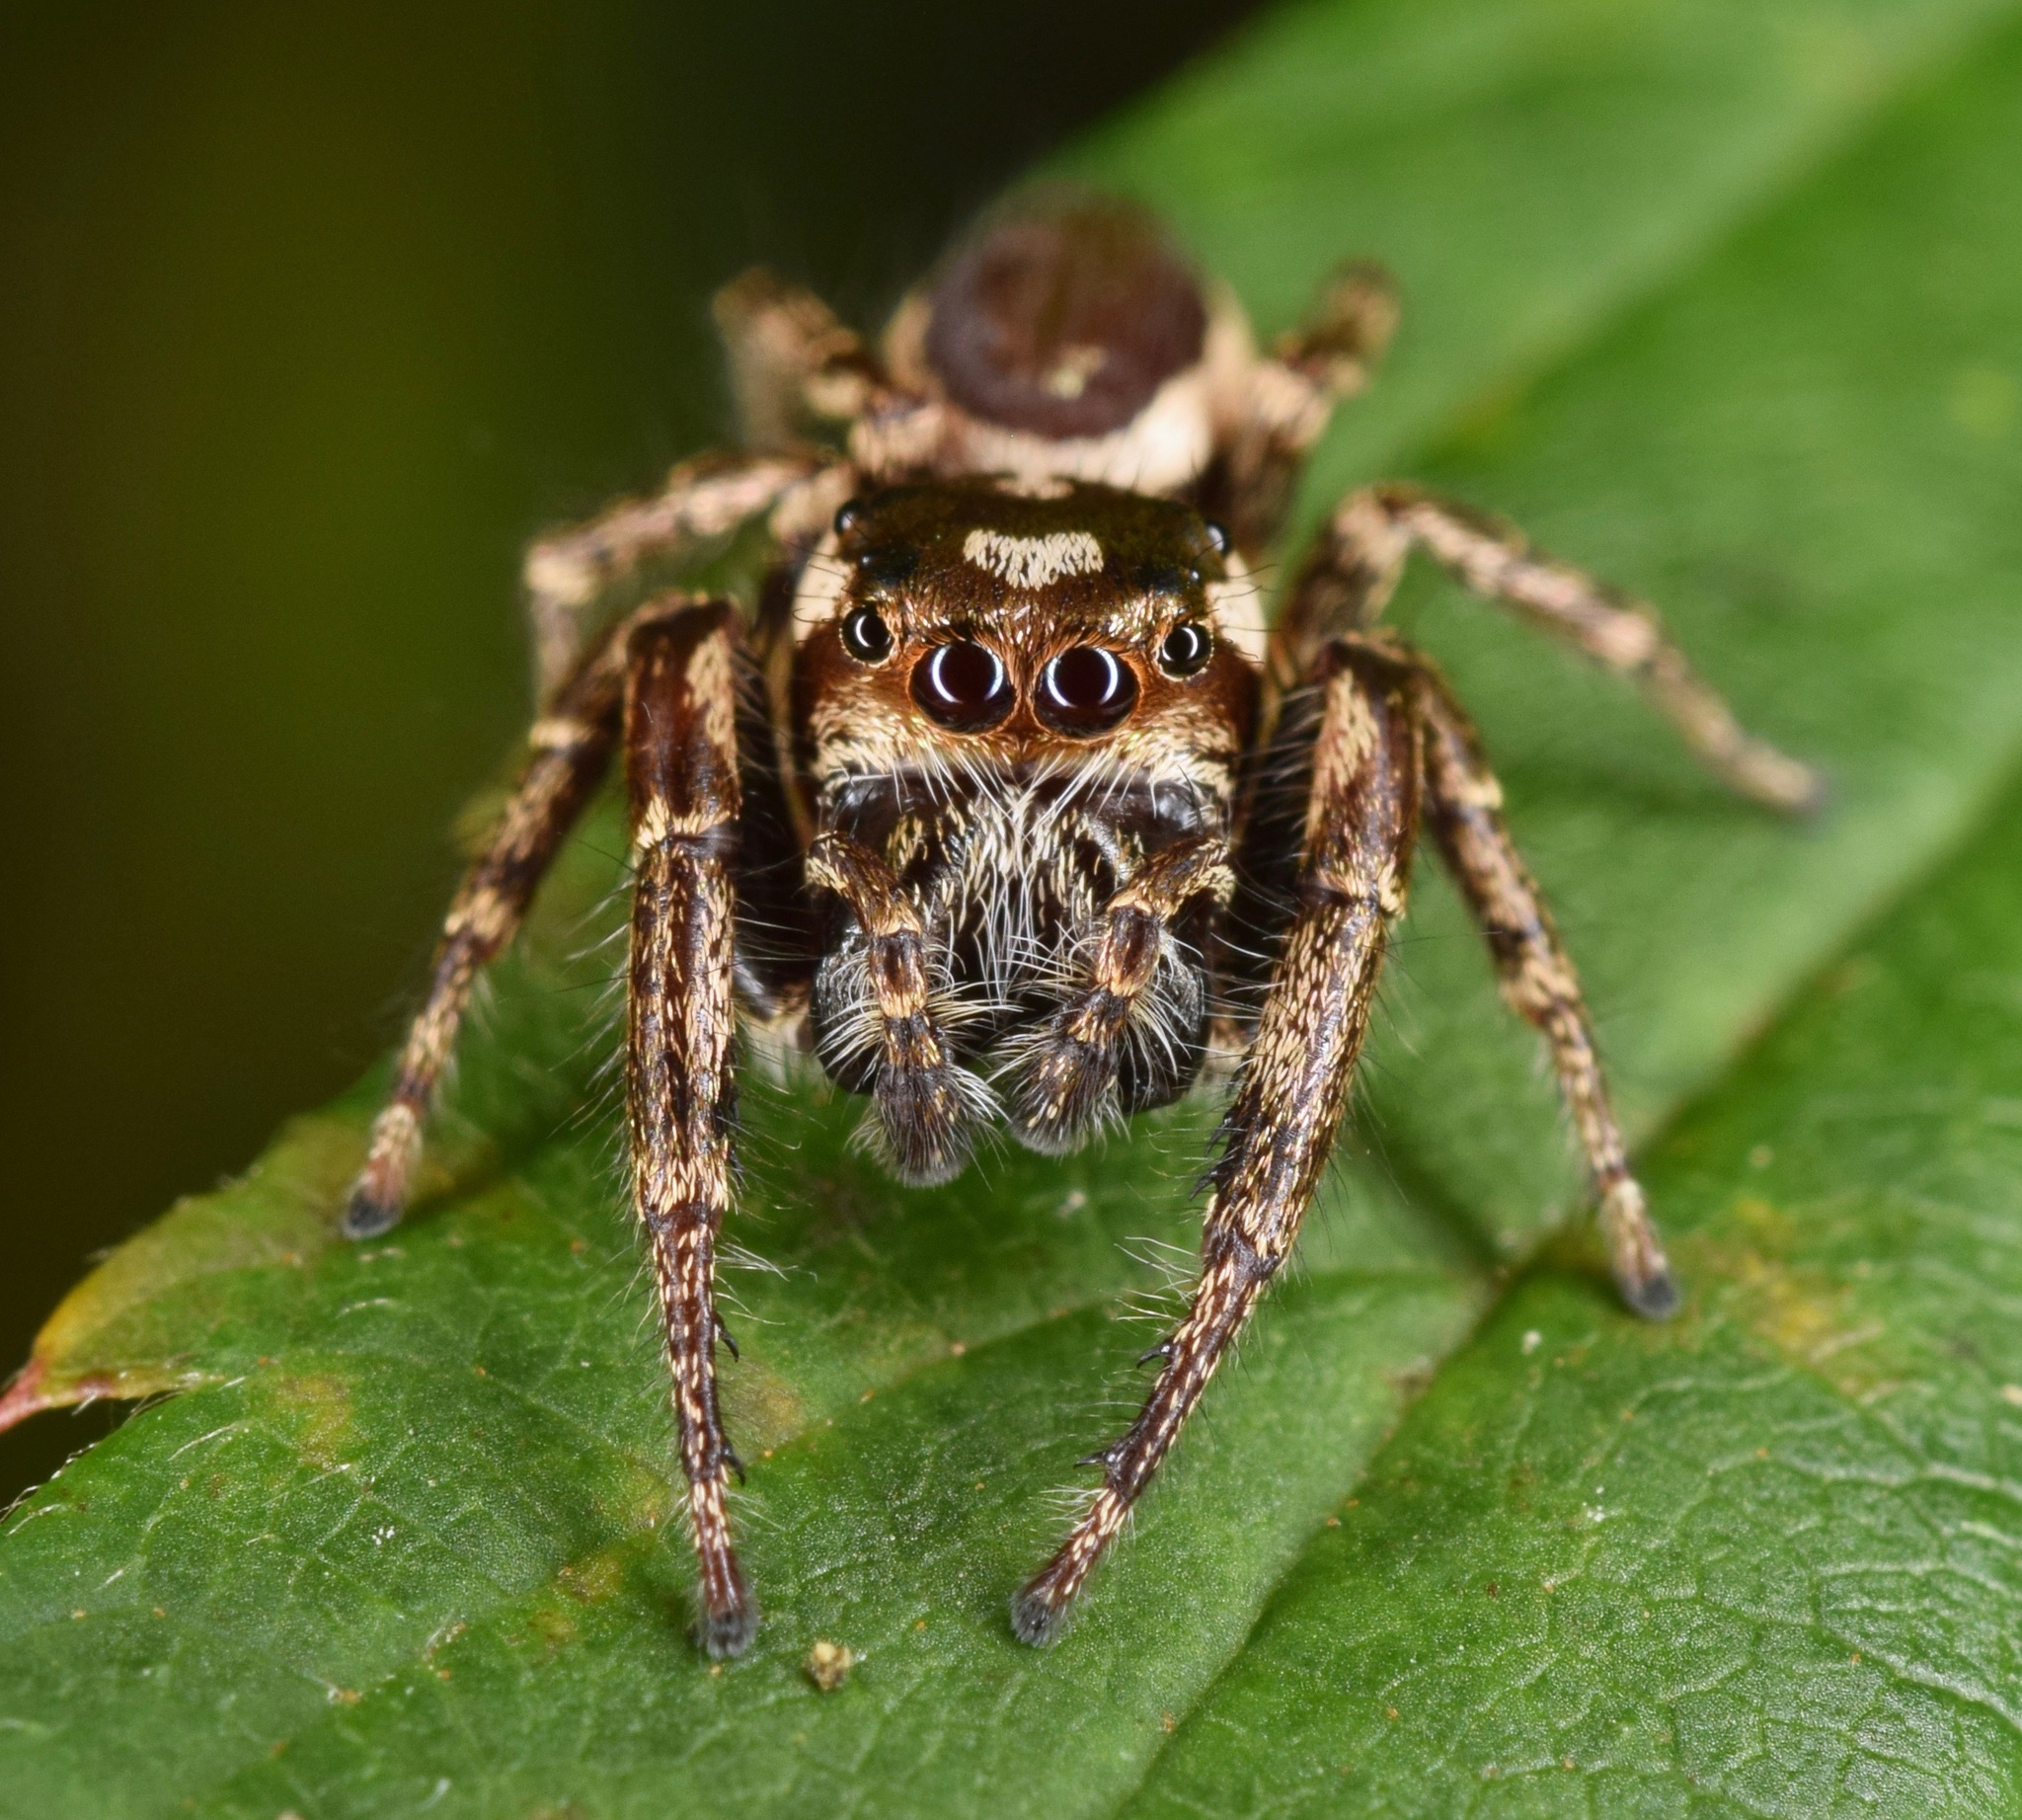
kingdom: Animalia
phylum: Arthropoda
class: Arachnida
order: Araneae
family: Salticidae
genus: Eris
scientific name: Eris flava
